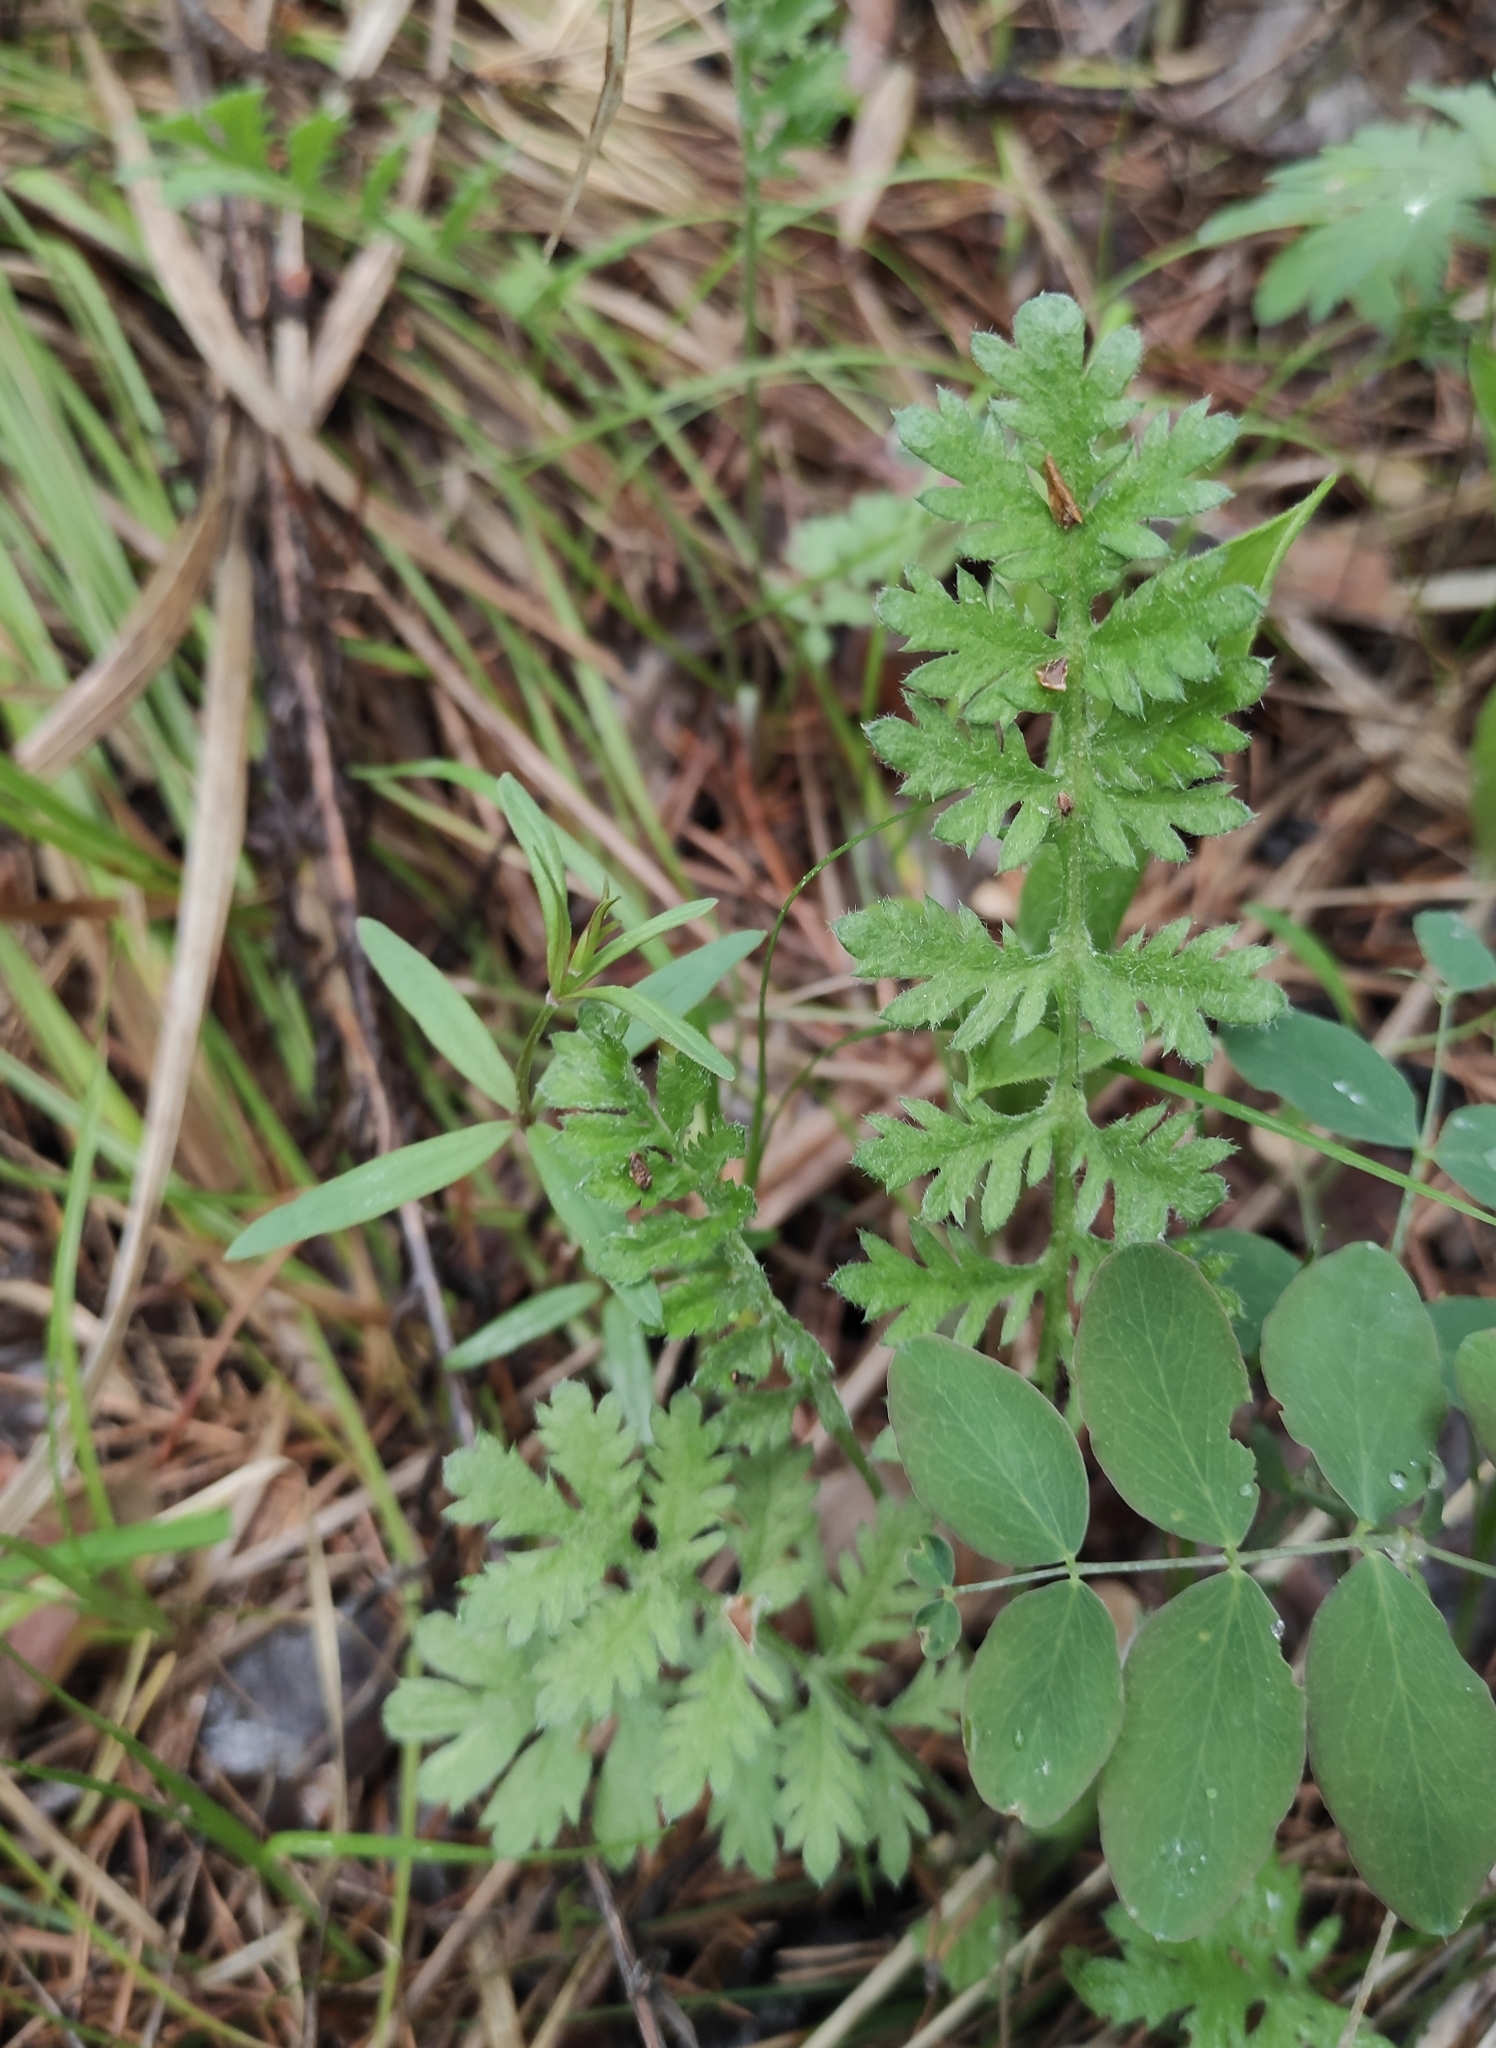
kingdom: Plantae
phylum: Tracheophyta
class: Magnoliopsida
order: Asterales
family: Asteraceae
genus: Artemisia
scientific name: Artemisia tanacetifolia
